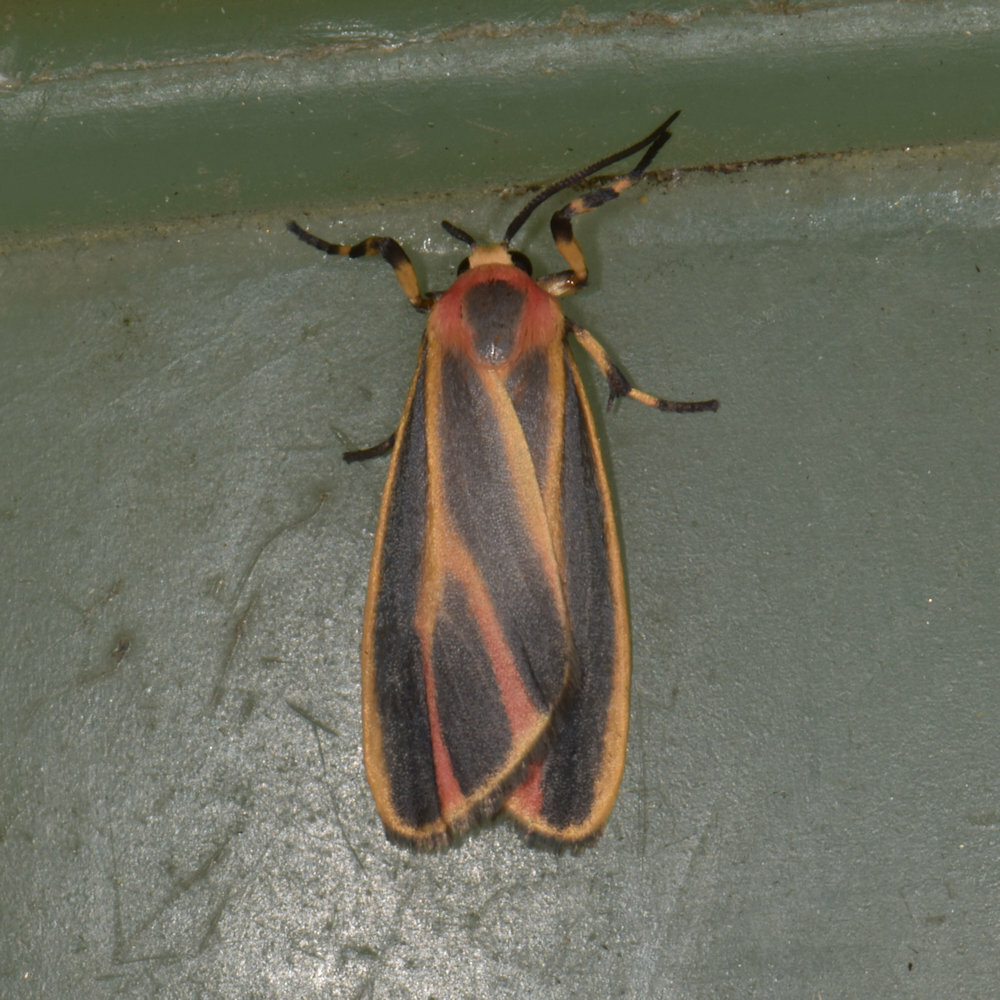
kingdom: Animalia
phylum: Arthropoda
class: Insecta
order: Lepidoptera
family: Erebidae
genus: Hypoprepia
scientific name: Hypoprepia fucosa
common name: Painted lichen moth
